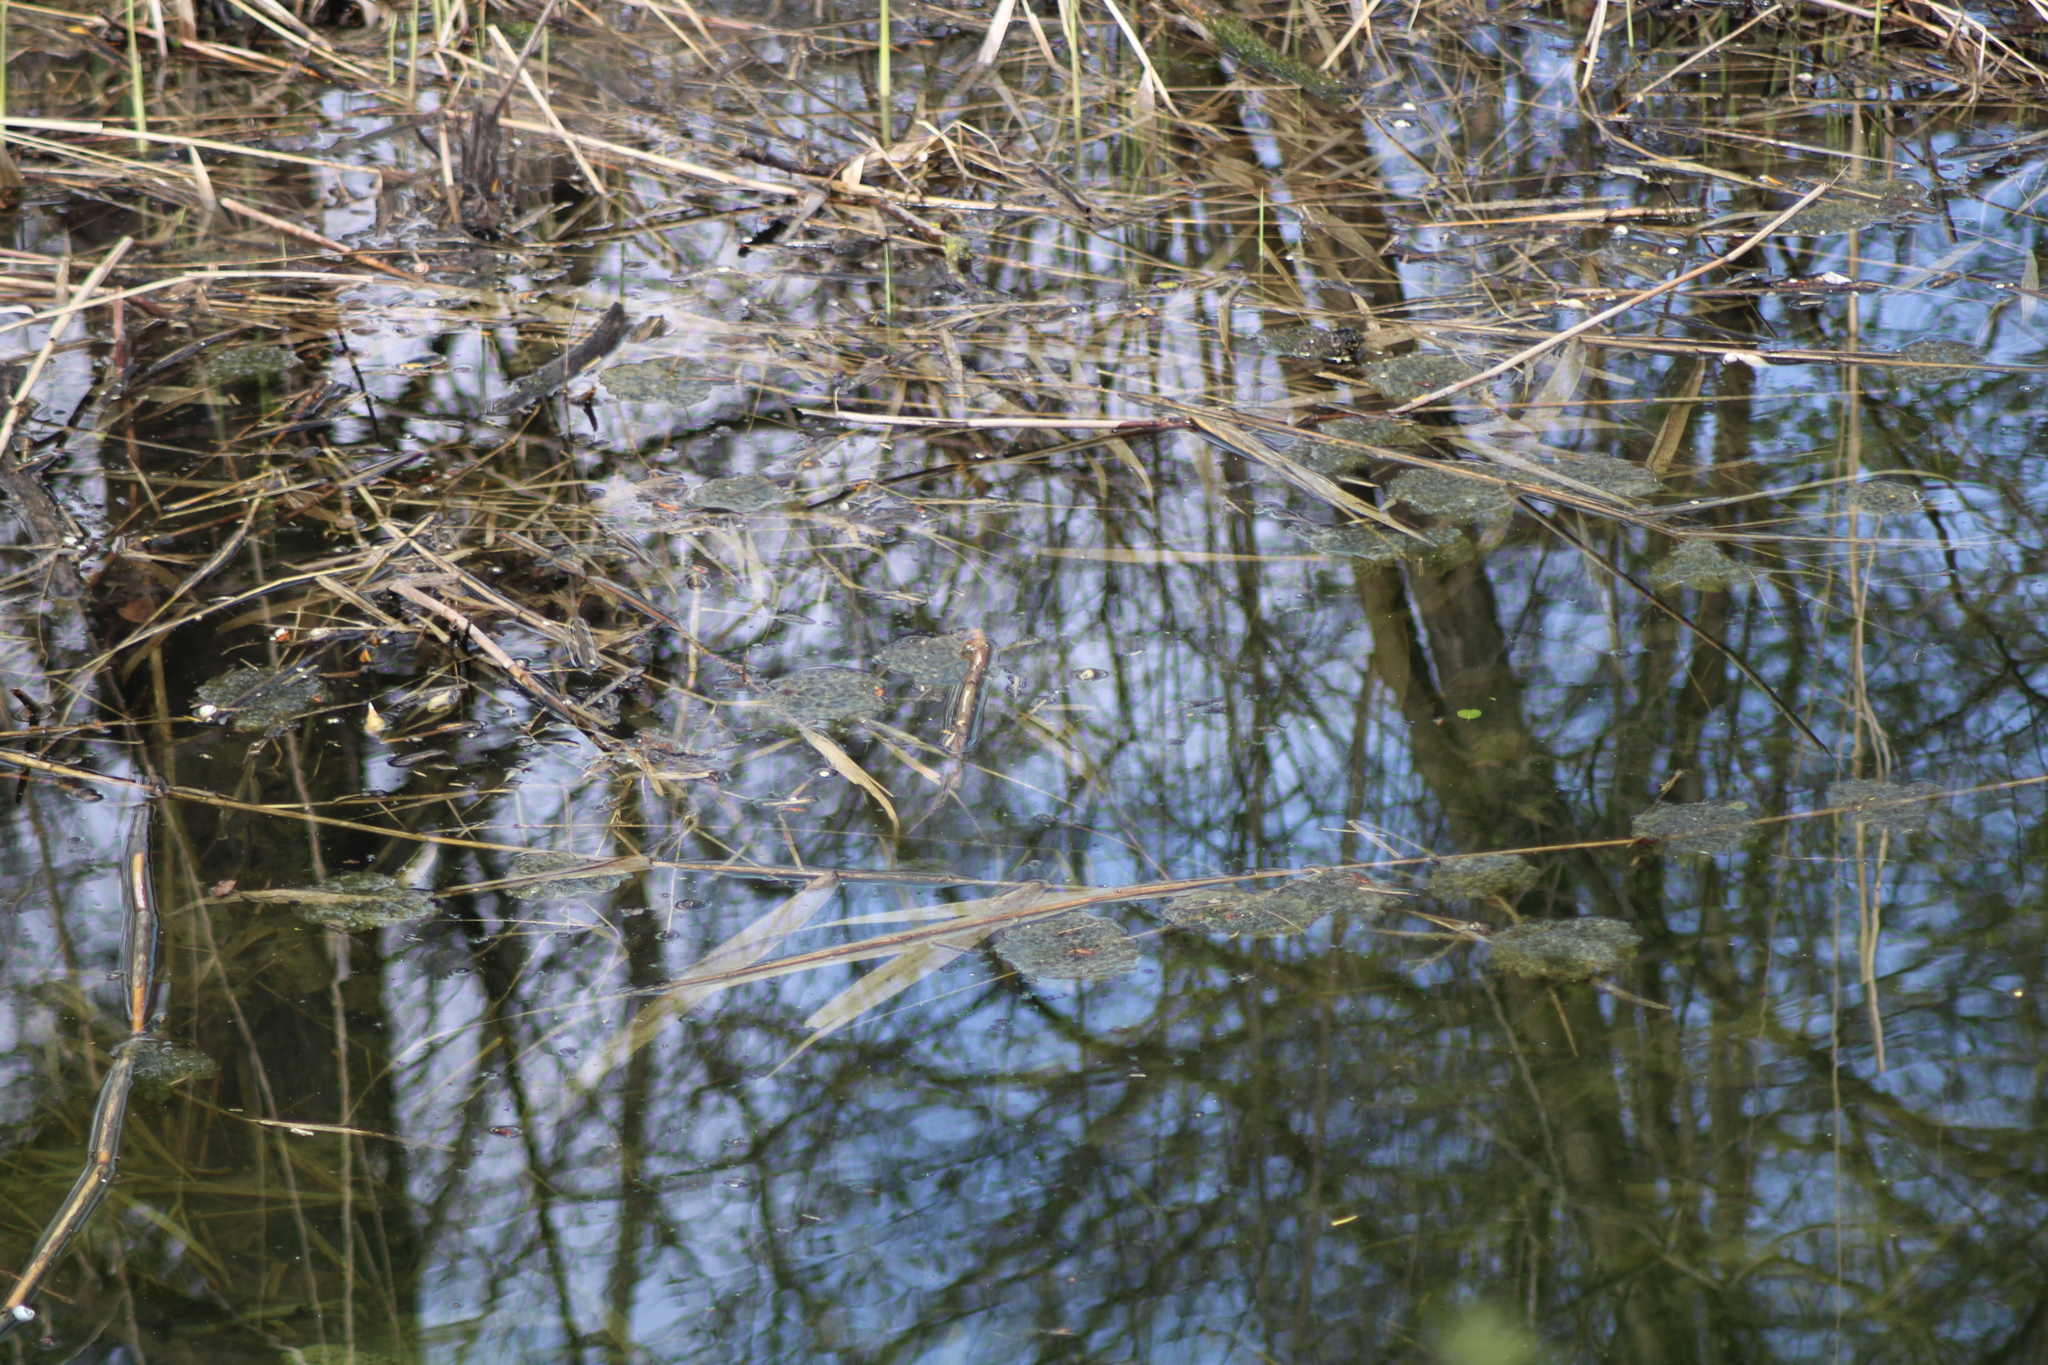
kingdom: Animalia
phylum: Chordata
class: Amphibia
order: Anura
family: Ranidae
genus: Rana
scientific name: Rana dalmatina
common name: Agile frog
